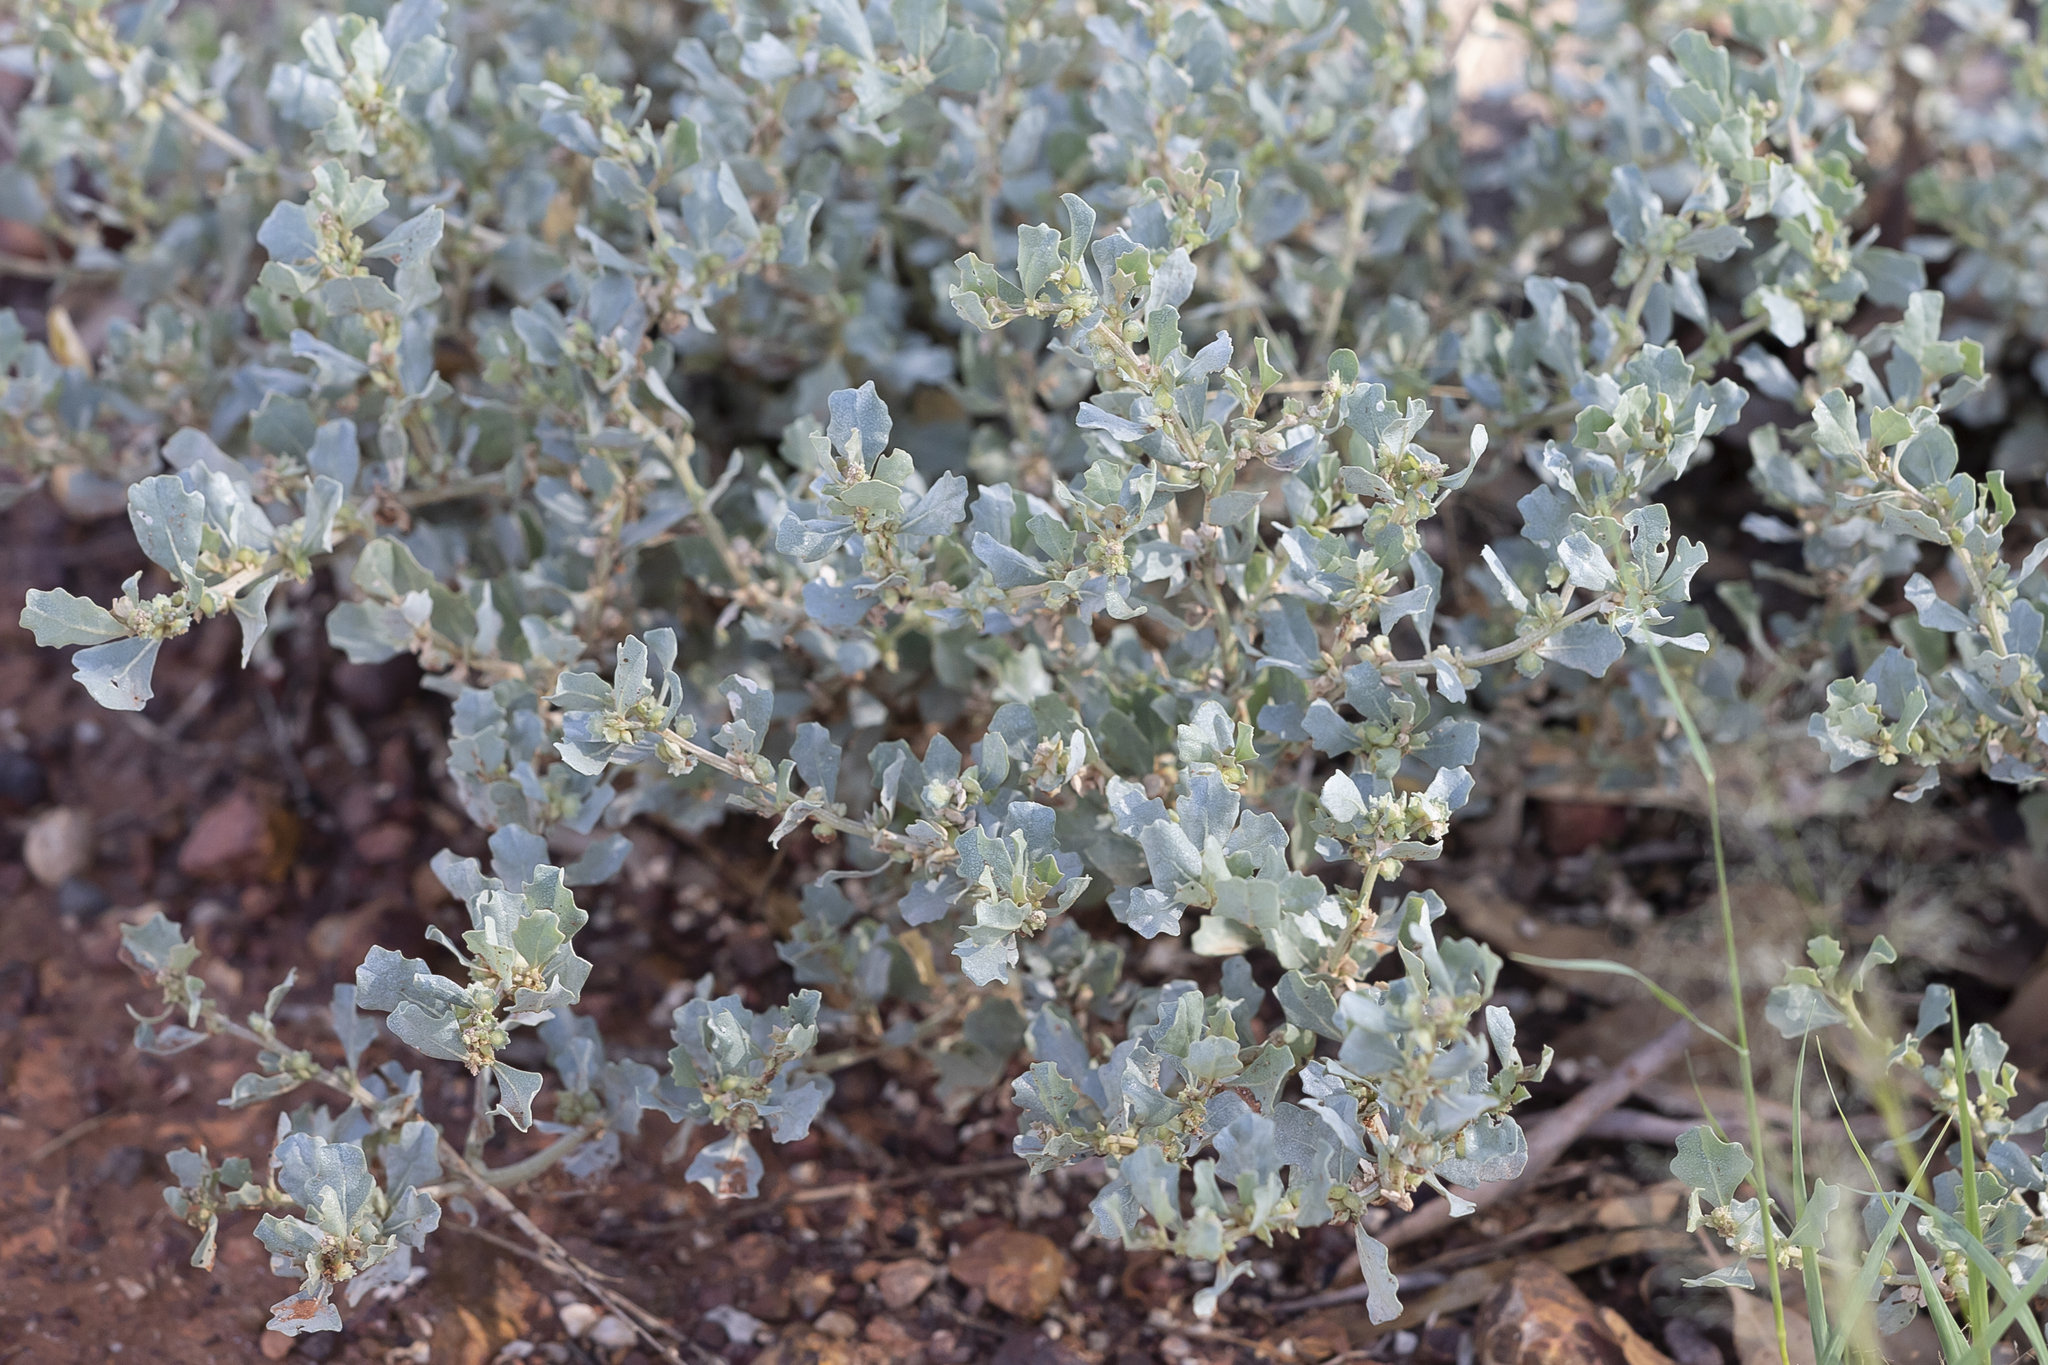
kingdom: Plantae
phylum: Tracheophyta
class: Magnoliopsida
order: Caryophyllales
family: Amaranthaceae
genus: Atriplex
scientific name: Atriplex muelleri
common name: Mueller's saltbush
